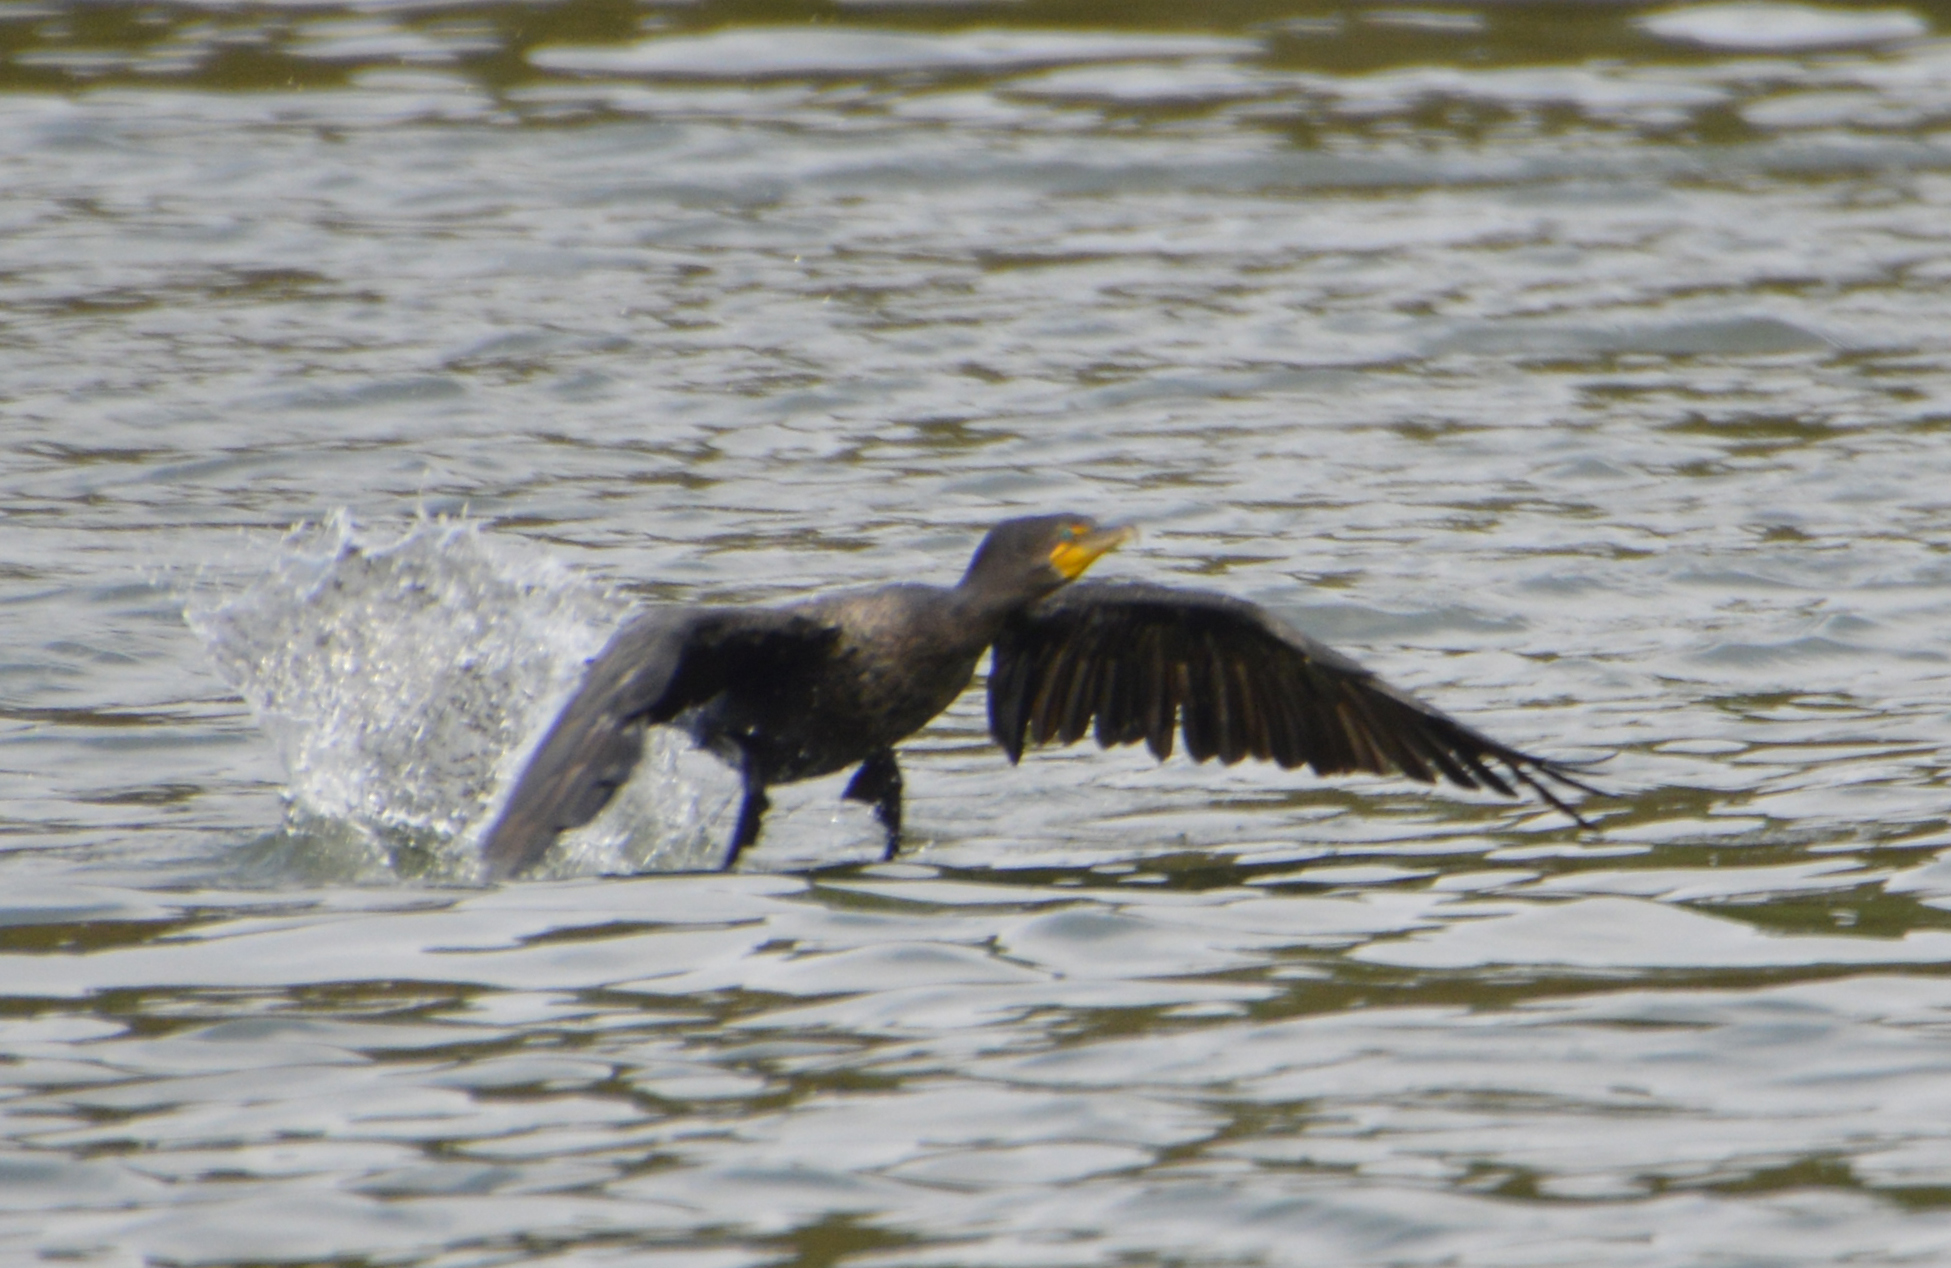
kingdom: Animalia
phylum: Chordata
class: Aves
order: Suliformes
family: Phalacrocoracidae
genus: Phalacrocorax
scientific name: Phalacrocorax auritus
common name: Double-crested cormorant
